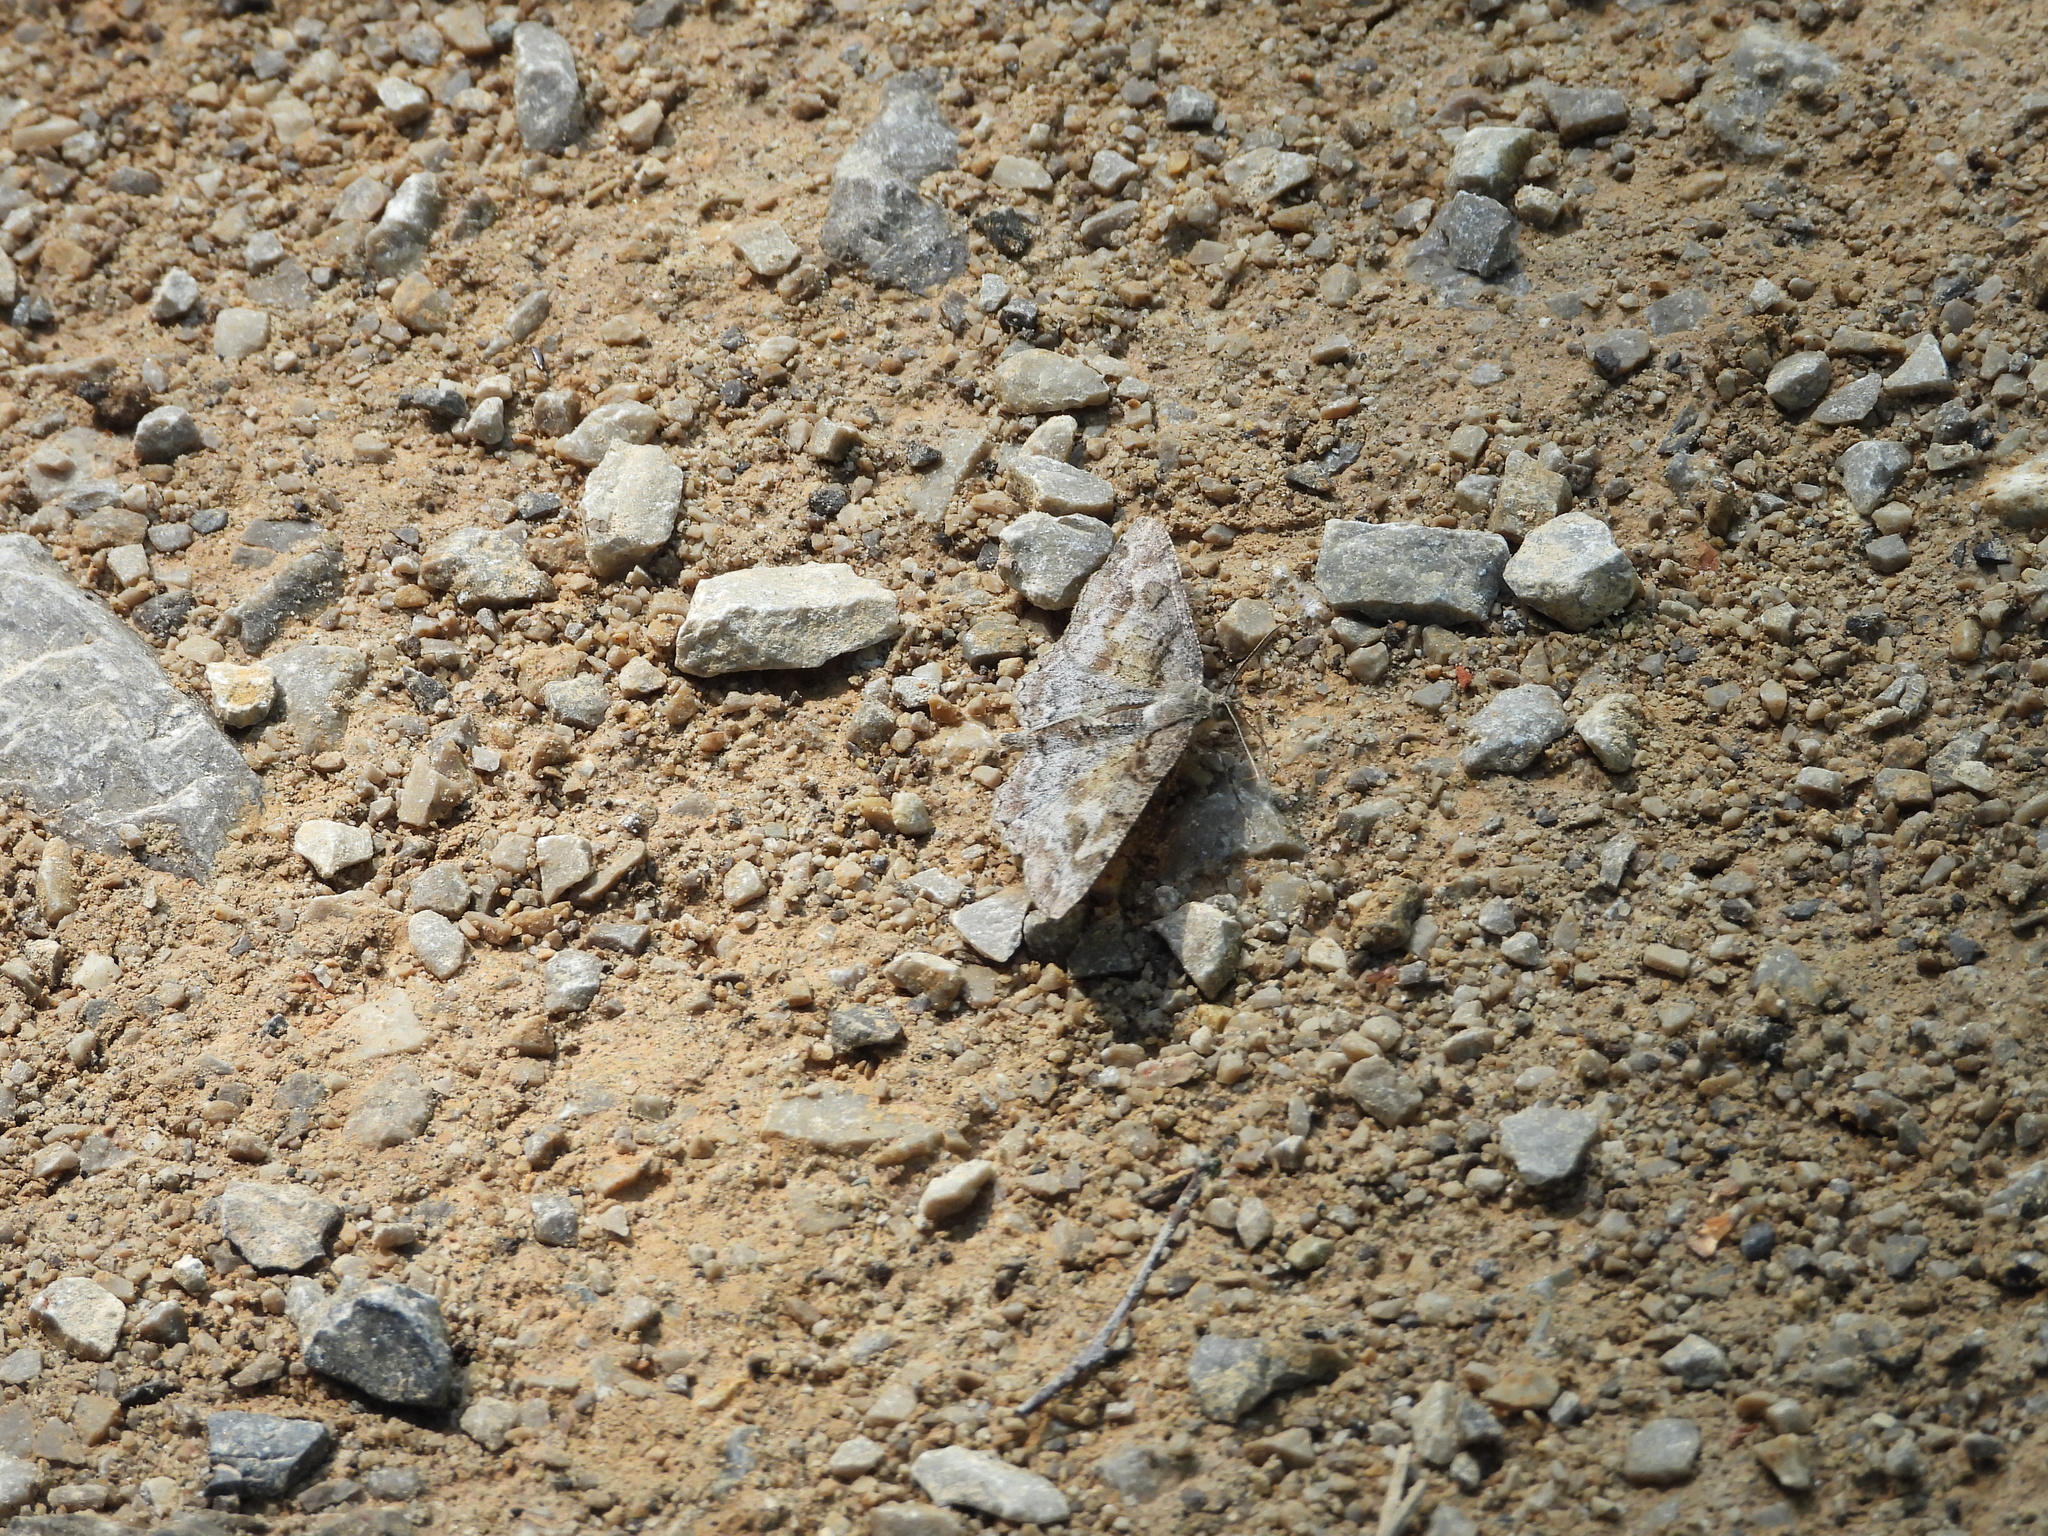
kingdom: Animalia
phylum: Arthropoda
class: Insecta
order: Lepidoptera
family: Geometridae
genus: Alcis
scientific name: Alcis repandata
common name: Mottled beauty
